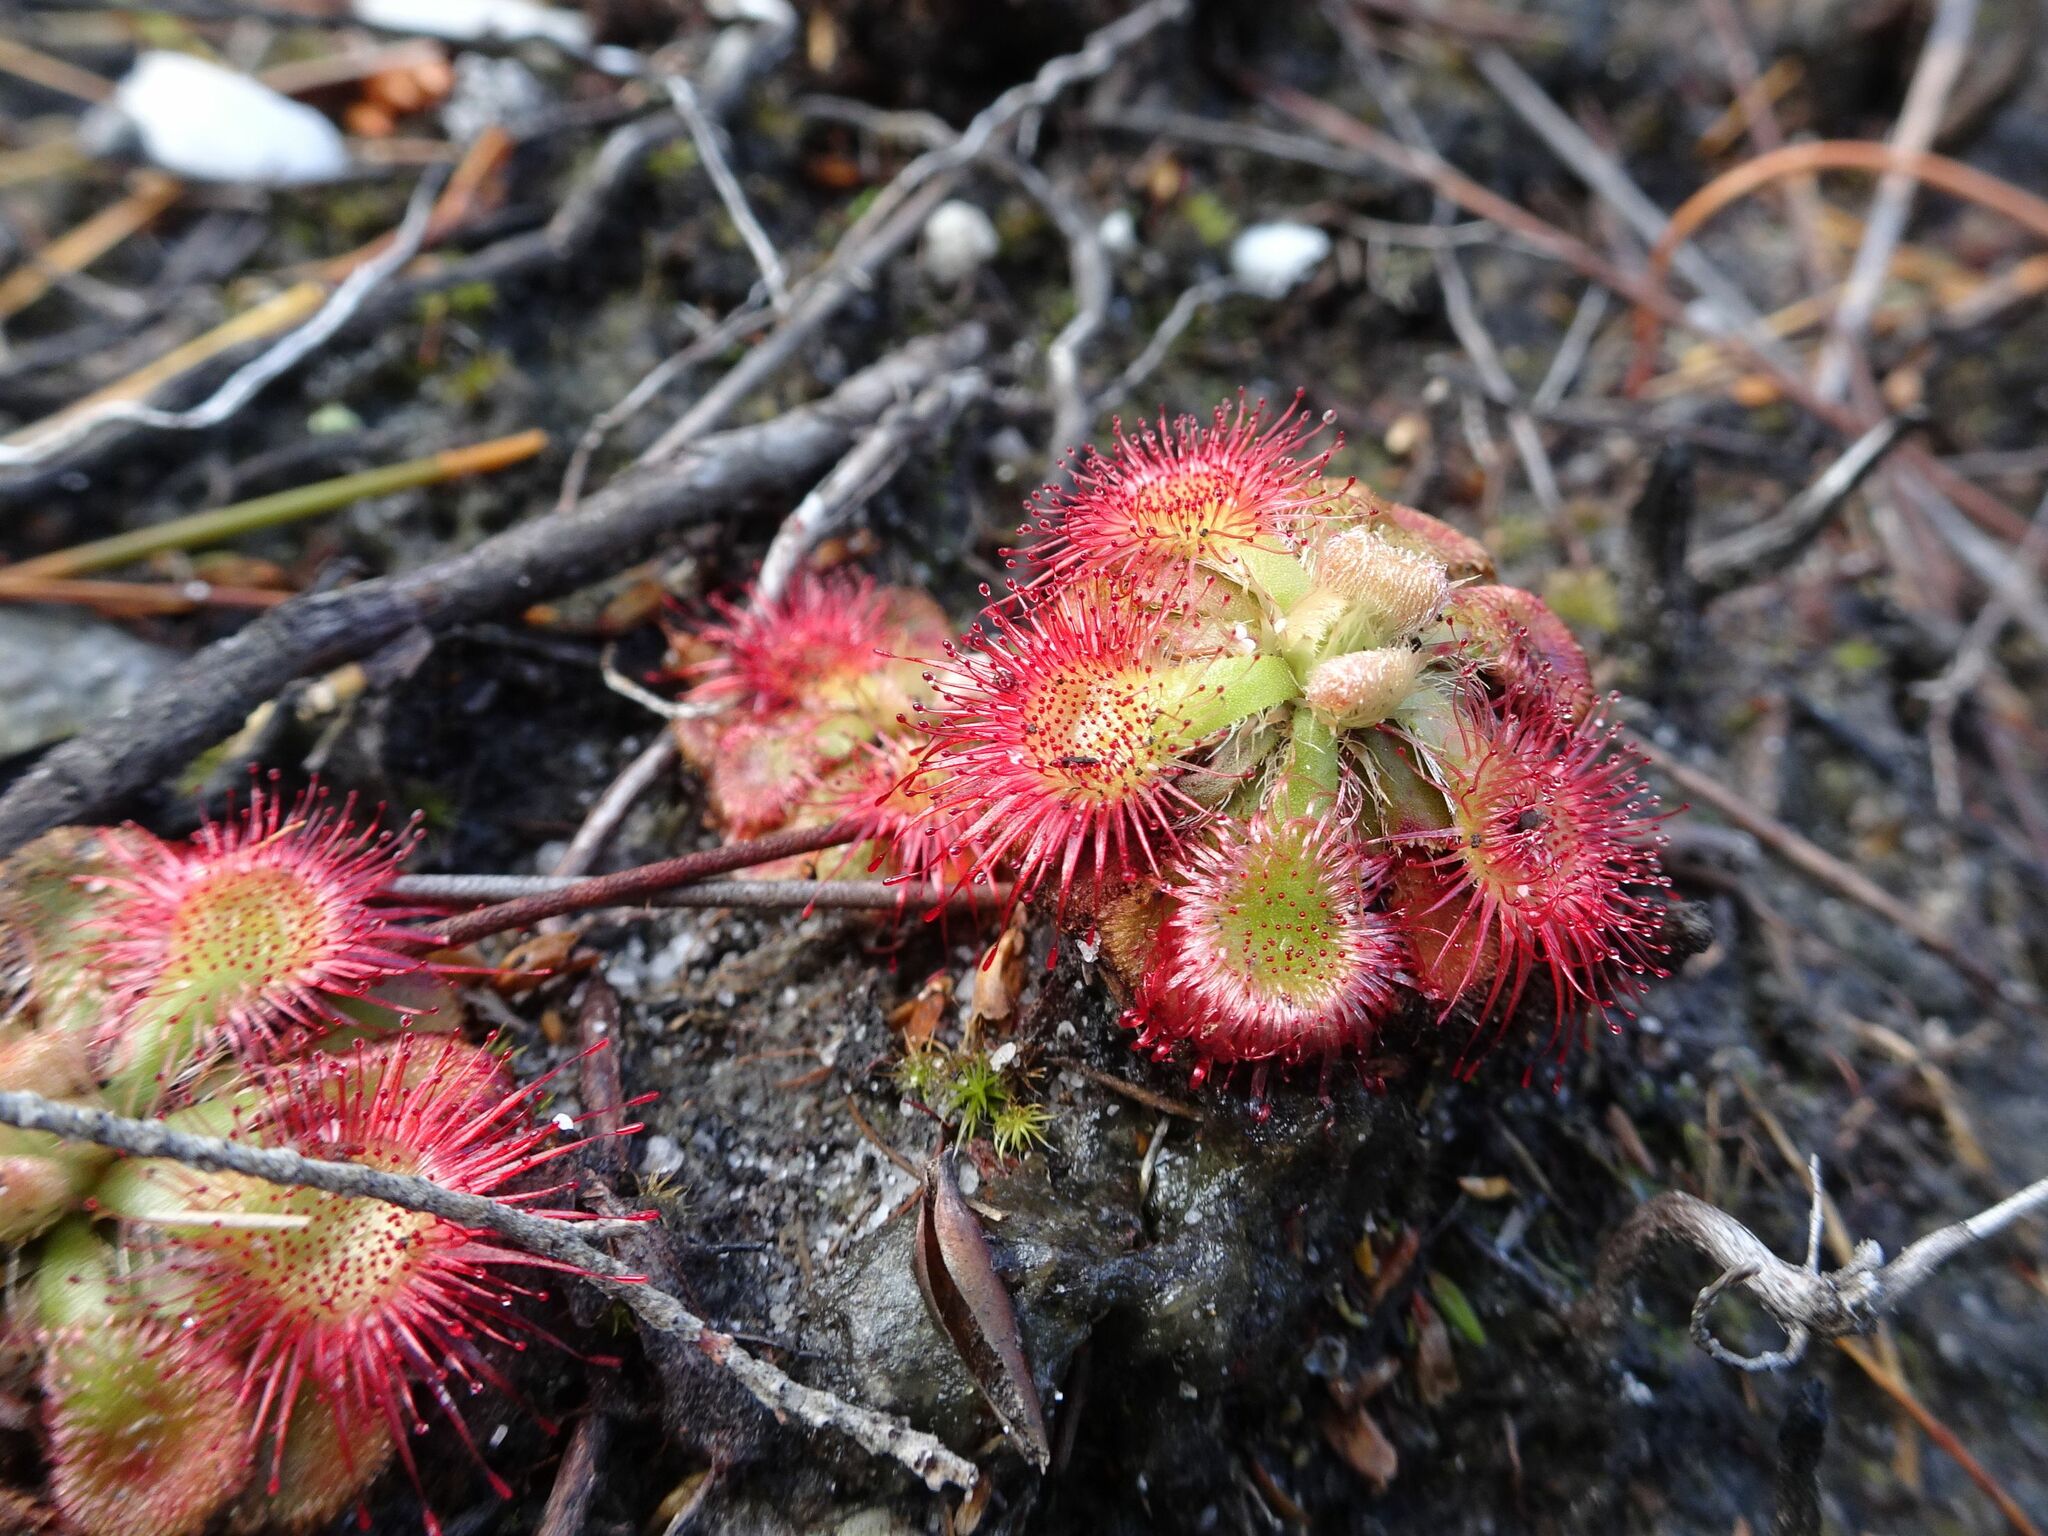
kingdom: Plantae
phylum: Tracheophyta
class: Magnoliopsida
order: Caryophyllales
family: Droseraceae
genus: Drosera
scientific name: Drosera xerophila
